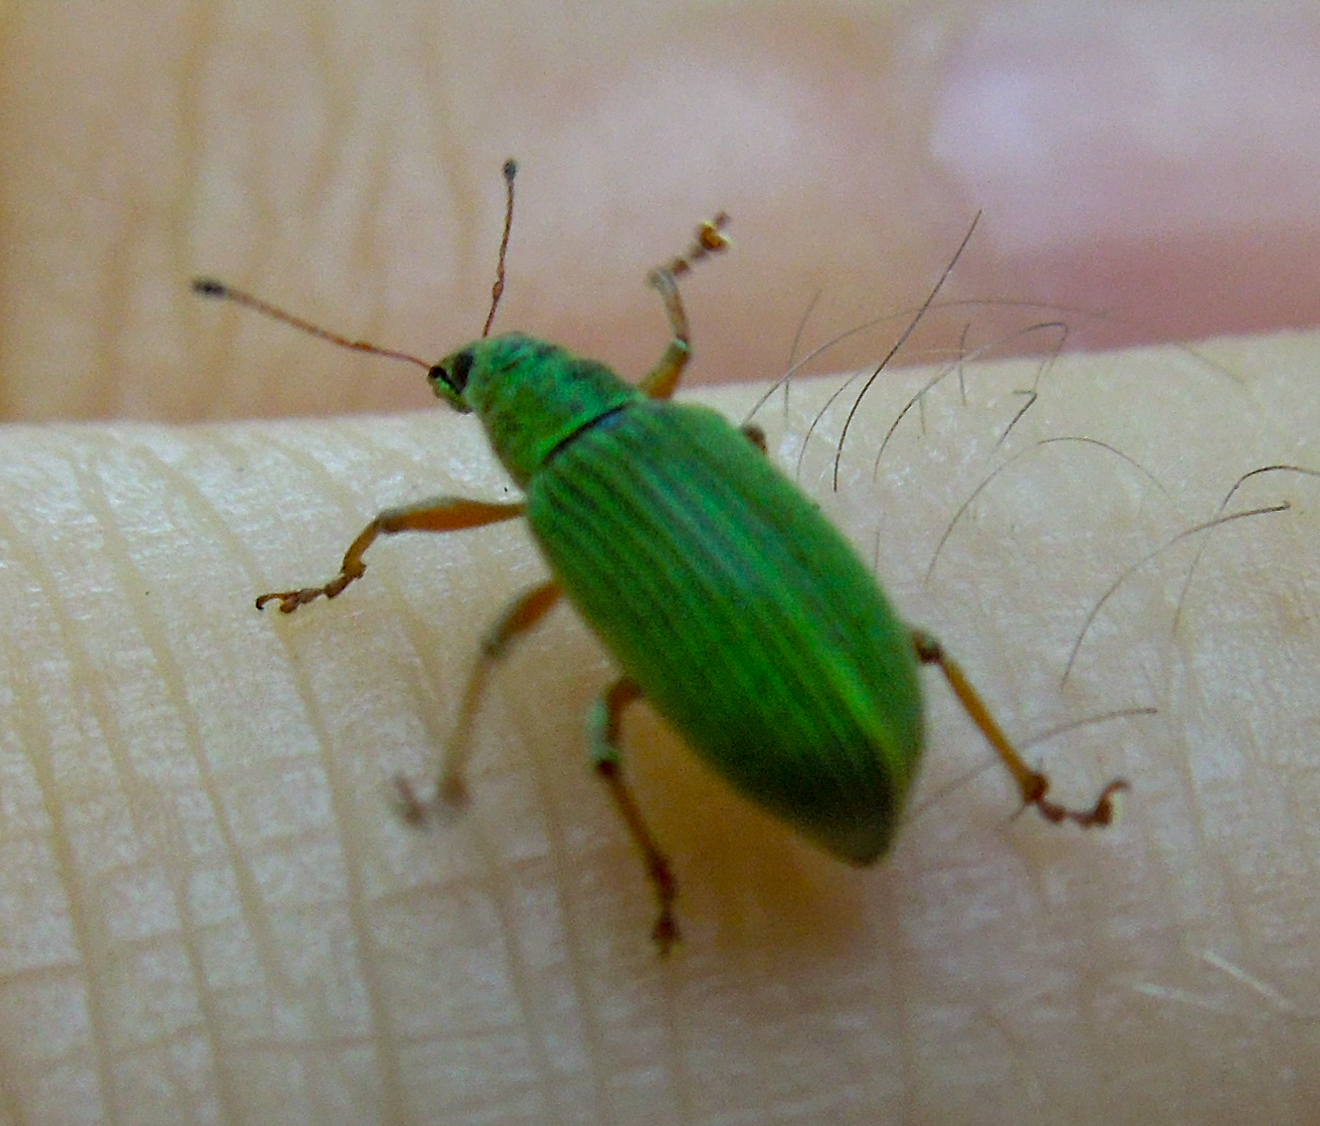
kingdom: Animalia
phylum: Arthropoda
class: Insecta
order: Coleoptera
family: Curculionidae
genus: Polydrusus
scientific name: Polydrusus formosus
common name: Weevil
